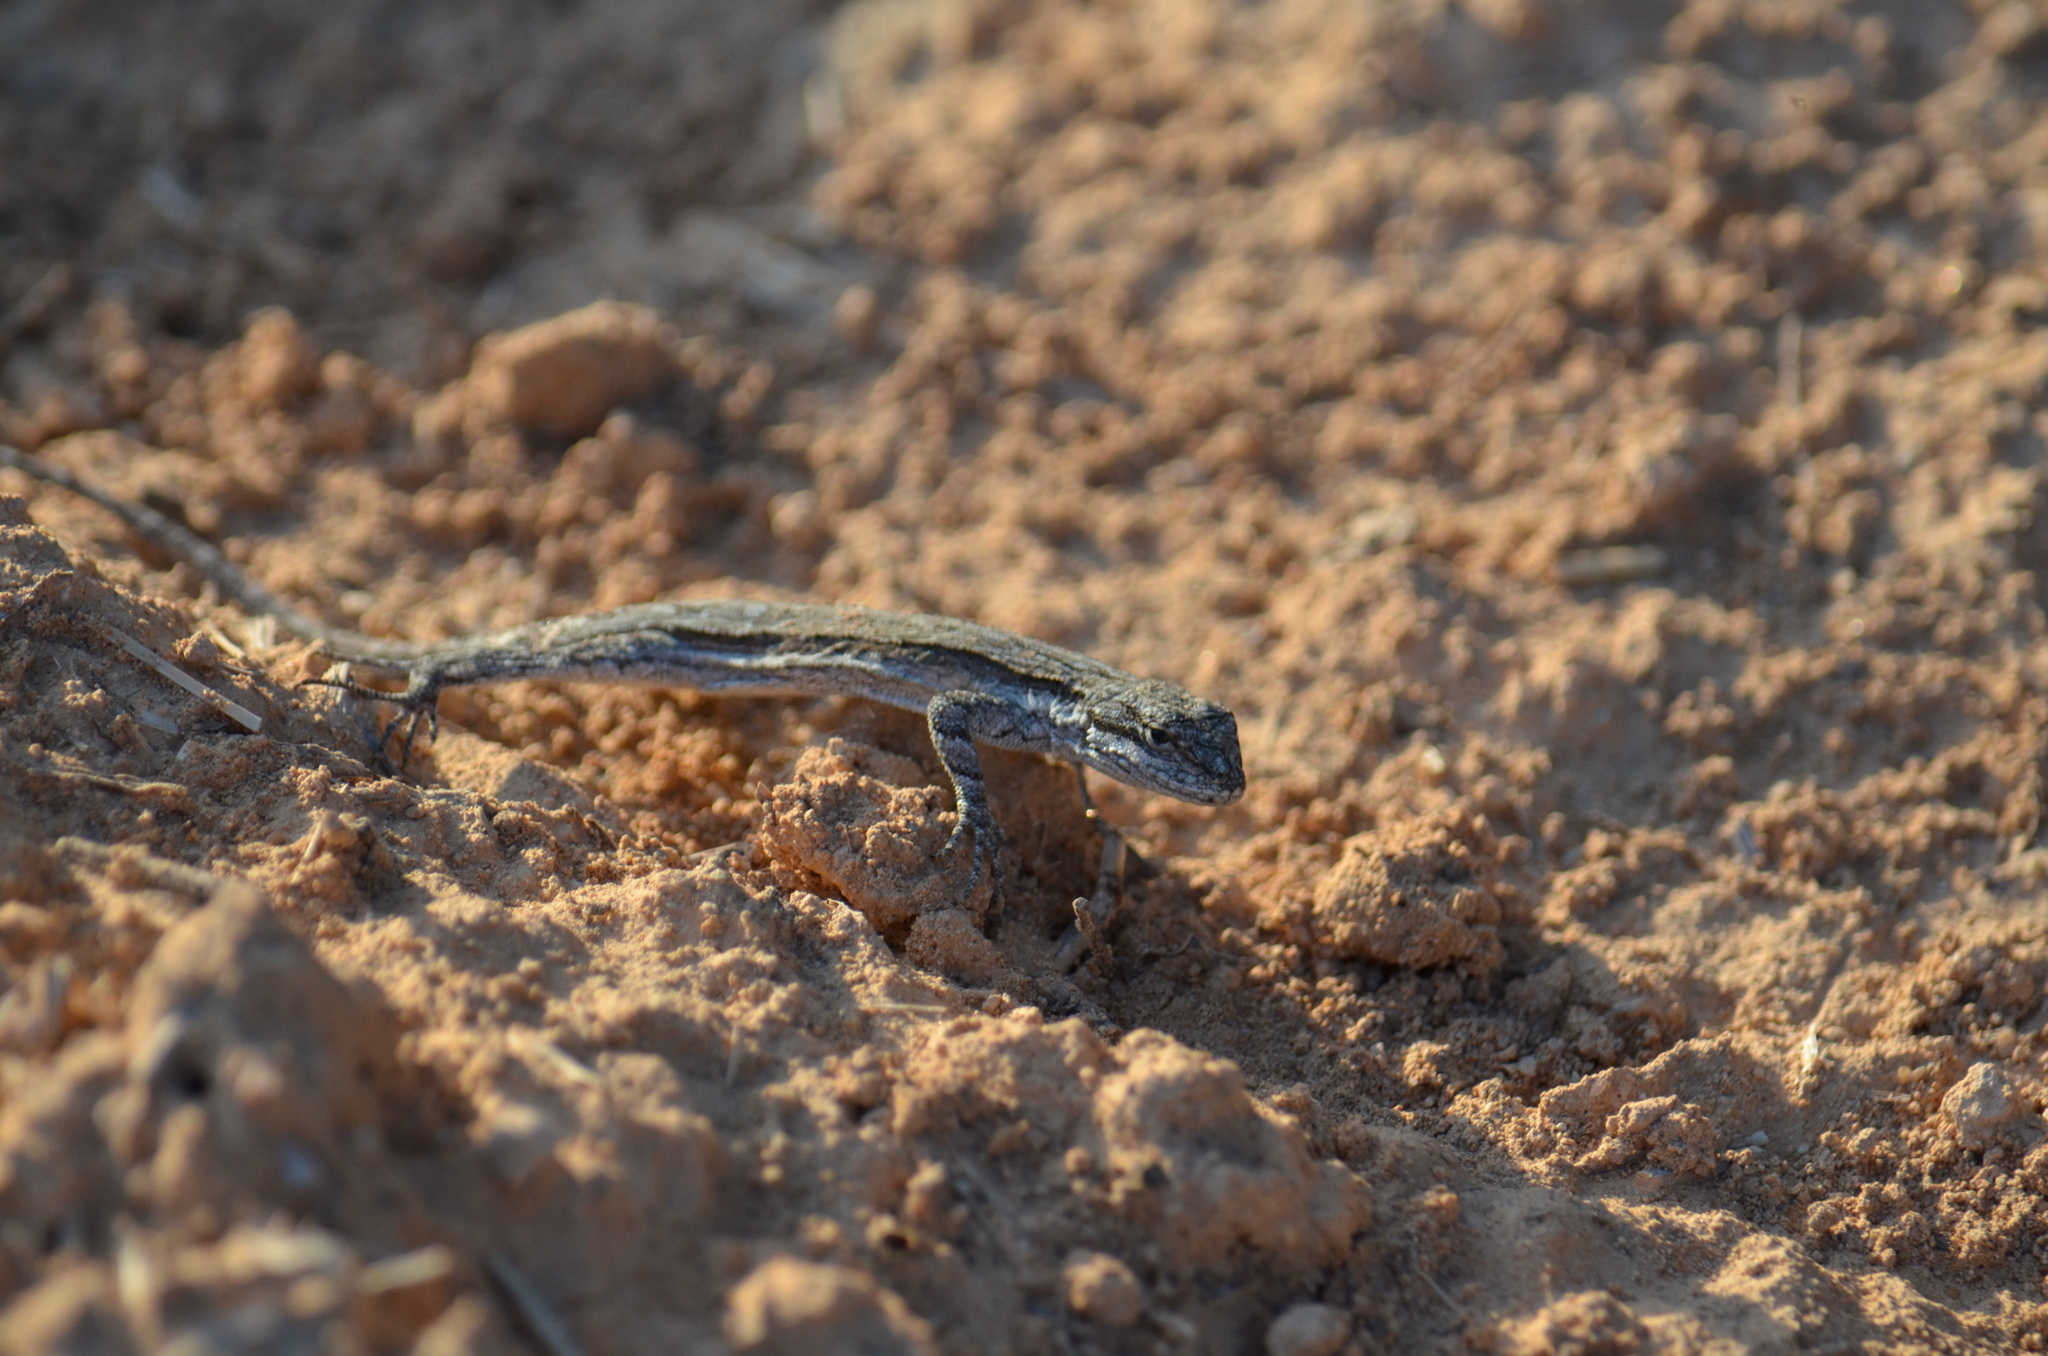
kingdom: Animalia
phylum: Chordata
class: Squamata
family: Phrynosomatidae
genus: Urosaurus
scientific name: Urosaurus ornatus
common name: Ornate tree lizard
